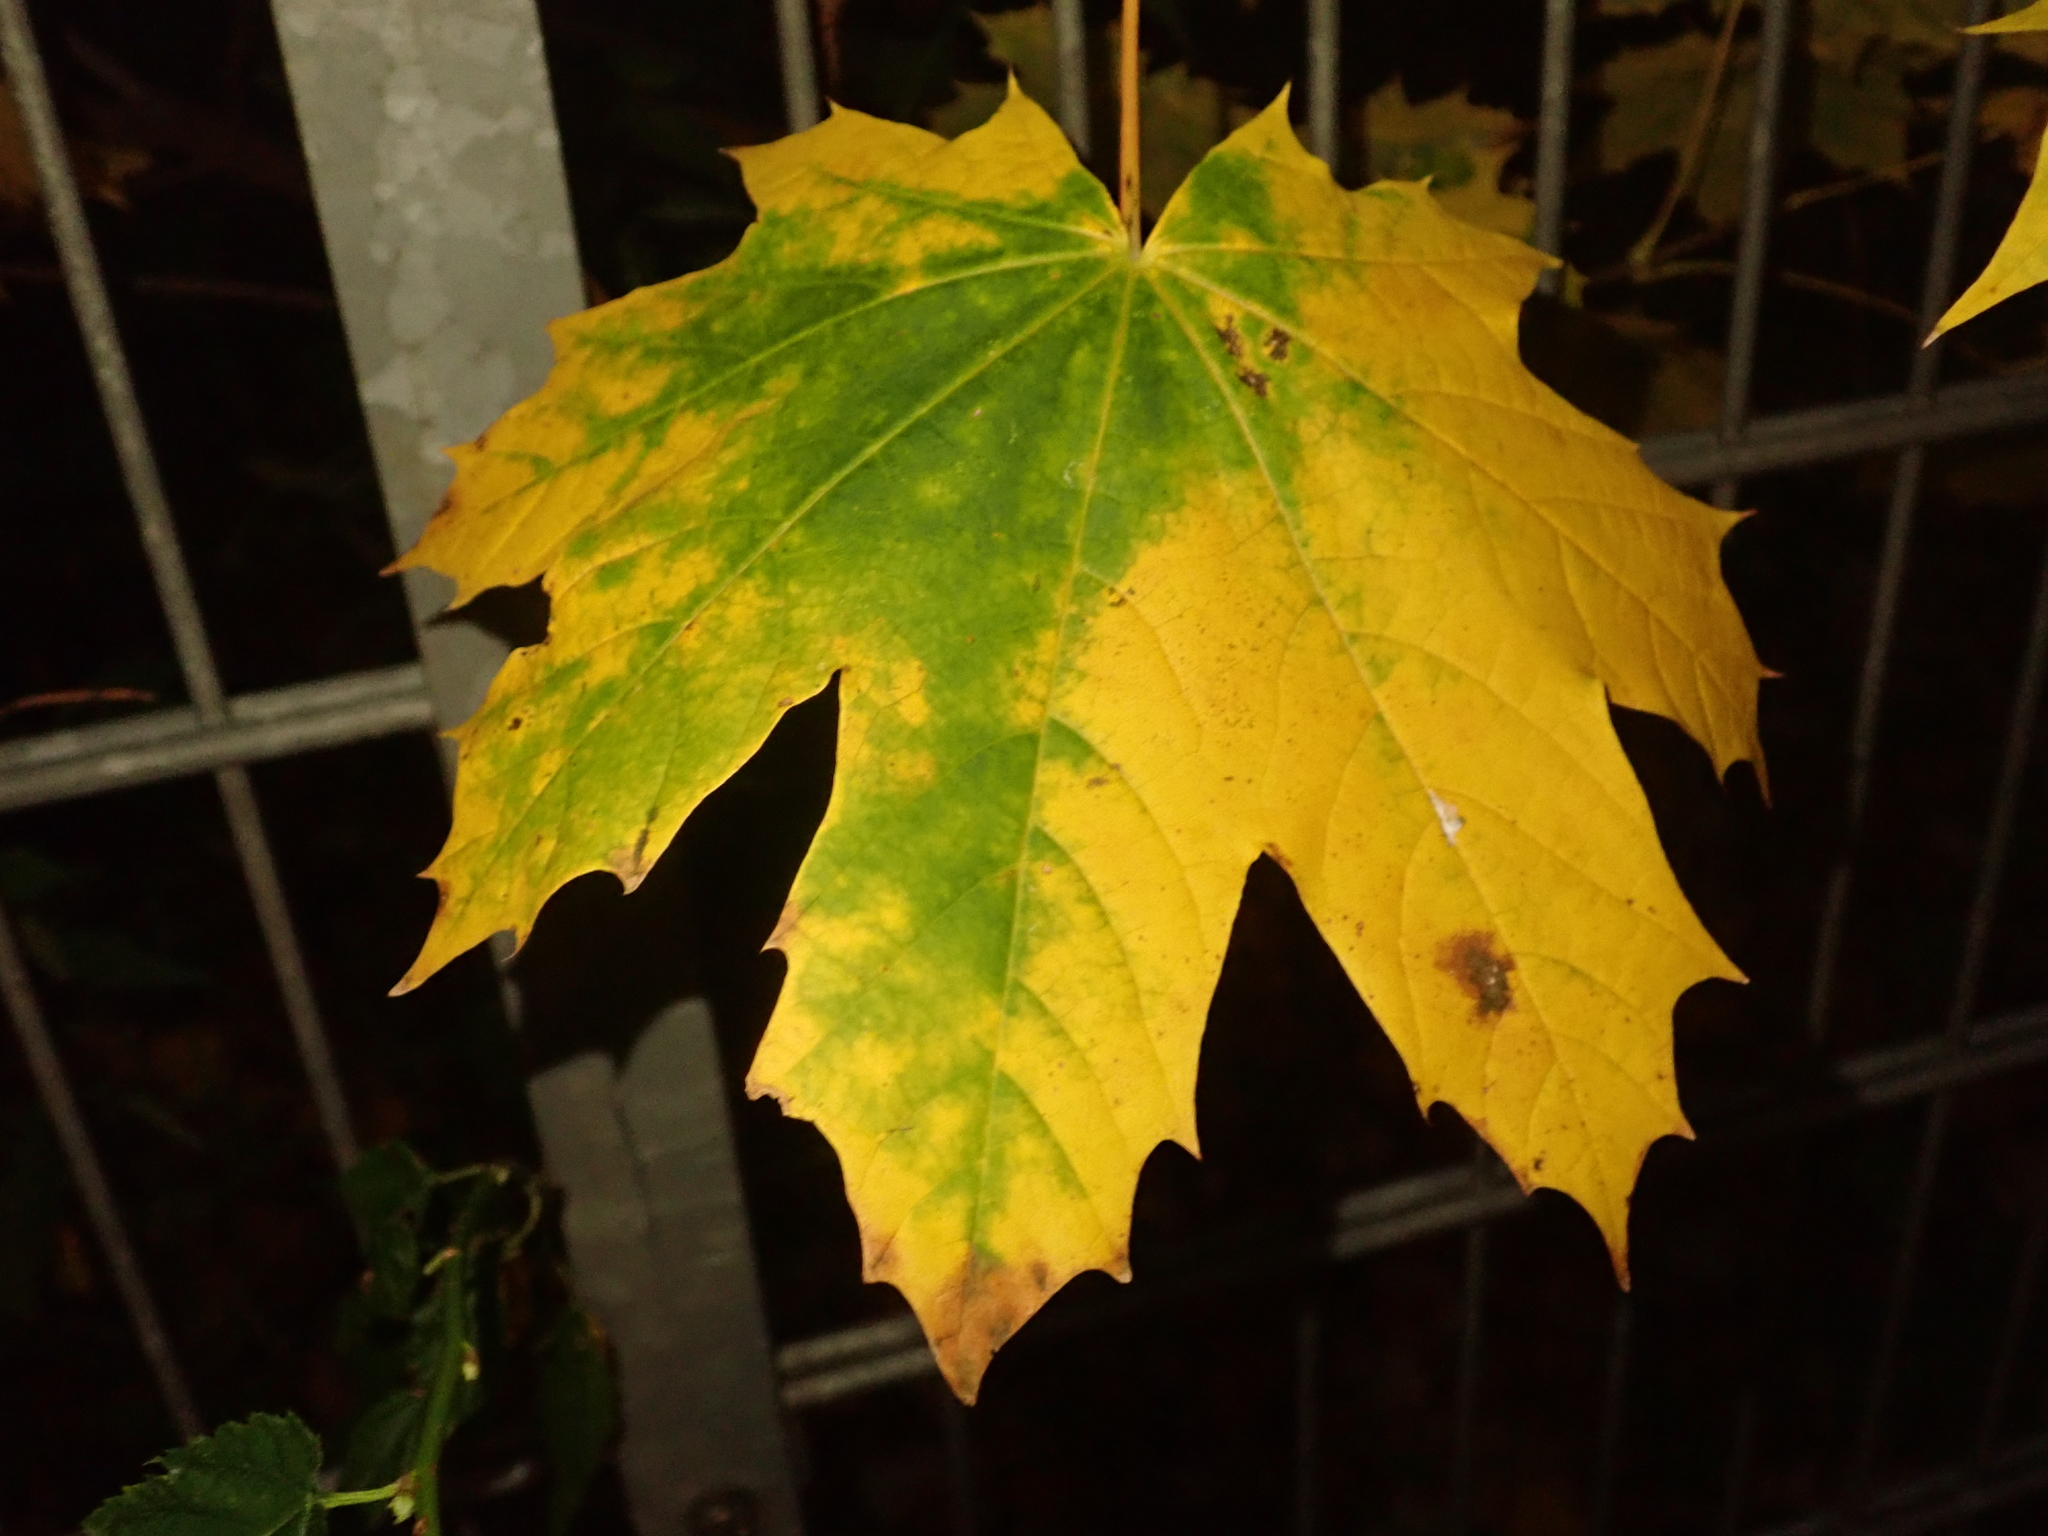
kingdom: Plantae
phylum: Tracheophyta
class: Magnoliopsida
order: Sapindales
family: Sapindaceae
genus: Acer
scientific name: Acer platanoides
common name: Norway maple
